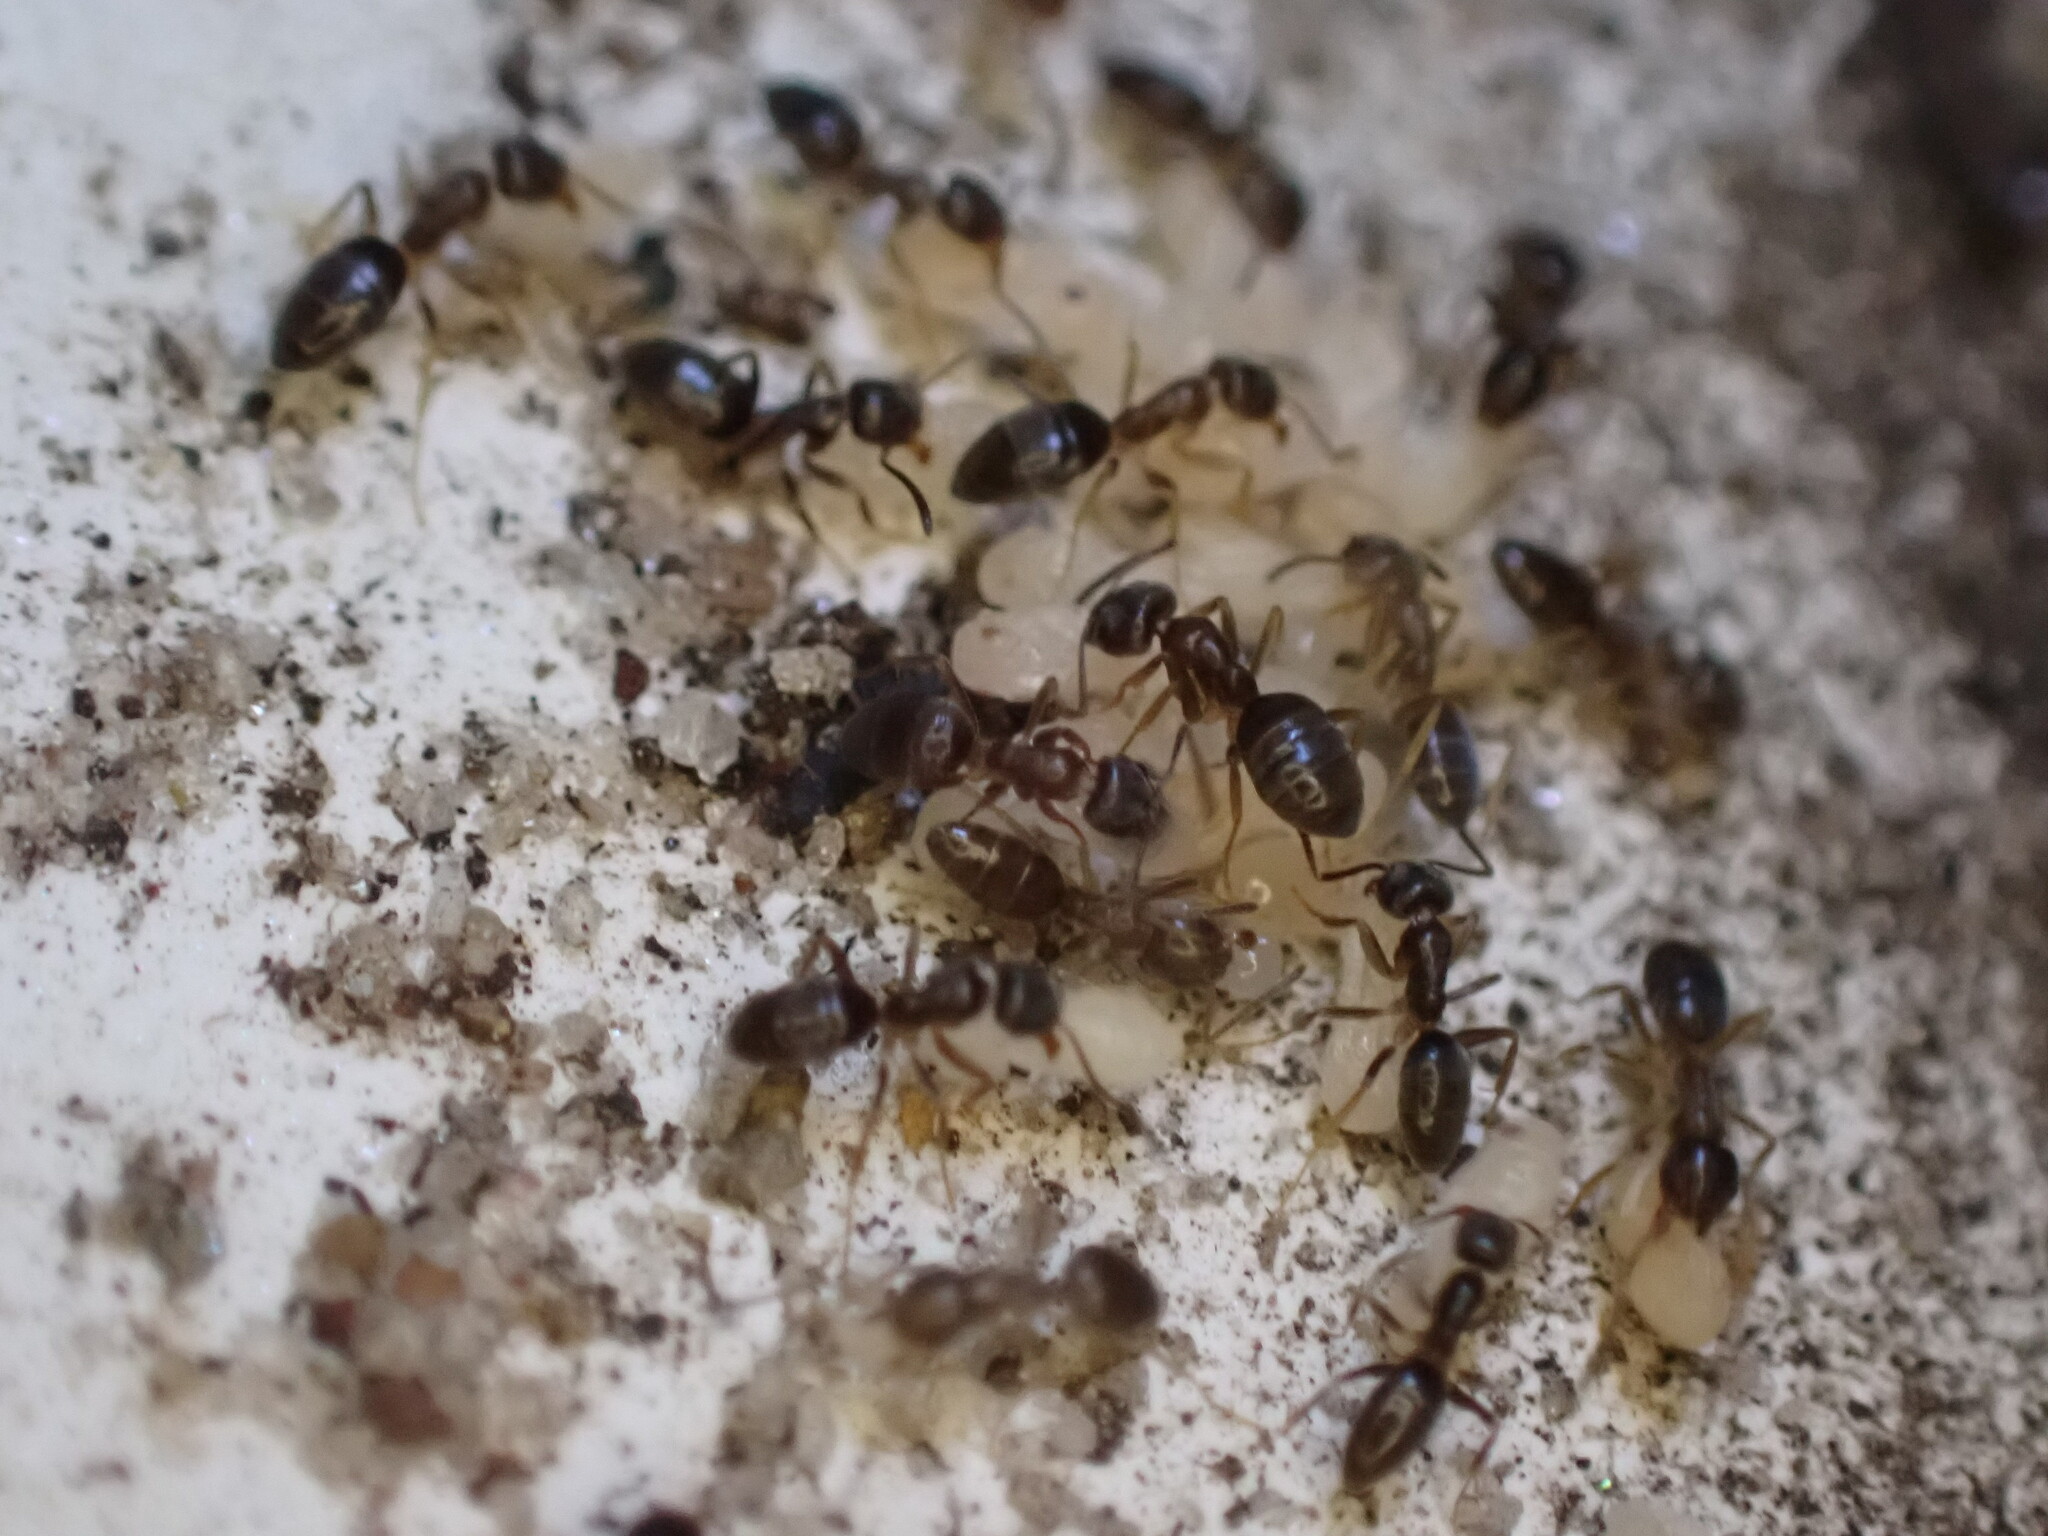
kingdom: Animalia
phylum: Arthropoda
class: Insecta
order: Hymenoptera
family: Formicidae
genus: Tapinoma
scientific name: Tapinoma sessile
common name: Odorous house ant
